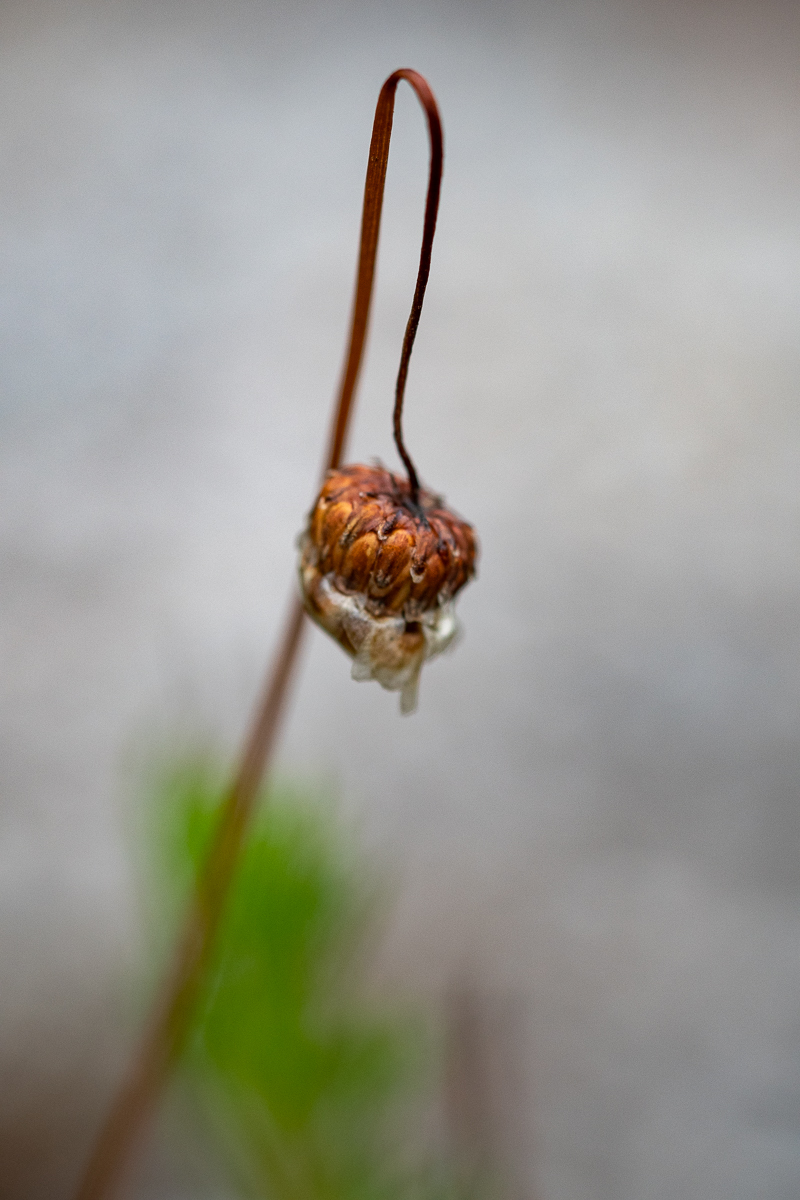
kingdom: Plantae
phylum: Tracheophyta
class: Magnoliopsida
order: Asterales
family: Asteraceae
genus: Ursinia
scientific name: Ursinia paleacea
